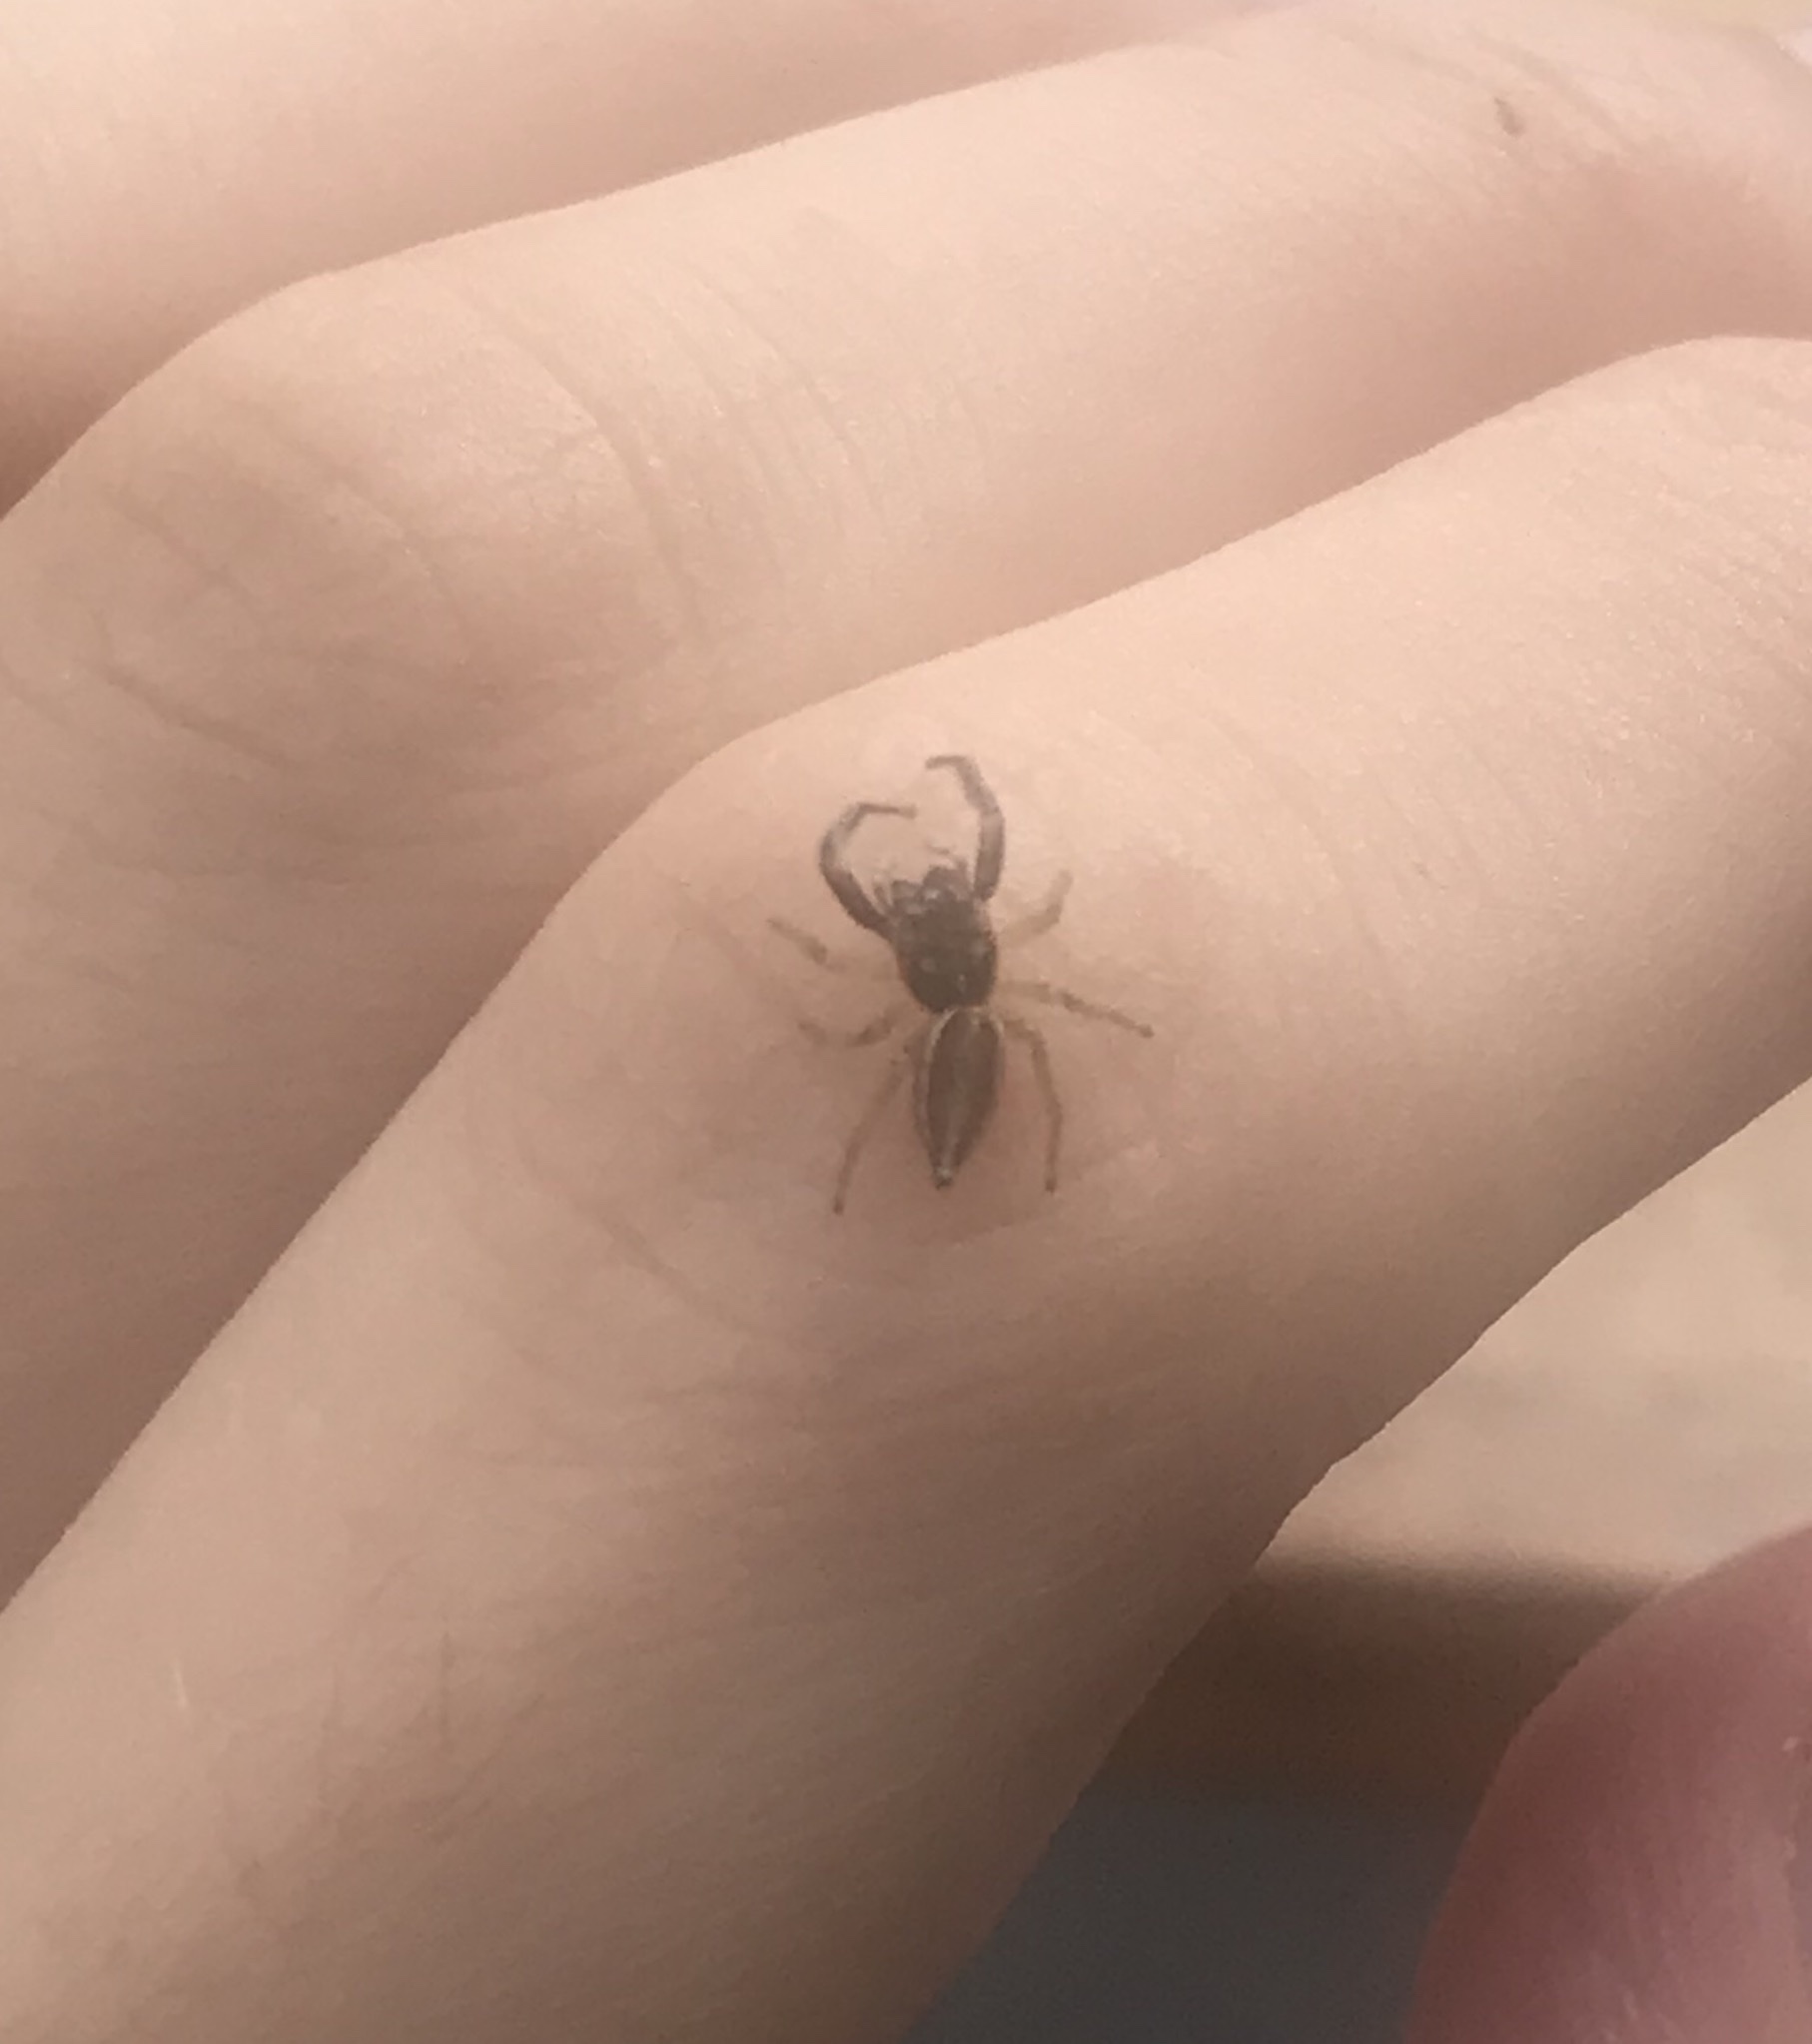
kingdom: Animalia
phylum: Arthropoda
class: Arachnida
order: Araneae
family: Salticidae
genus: Icius
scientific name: Icius hamatus
